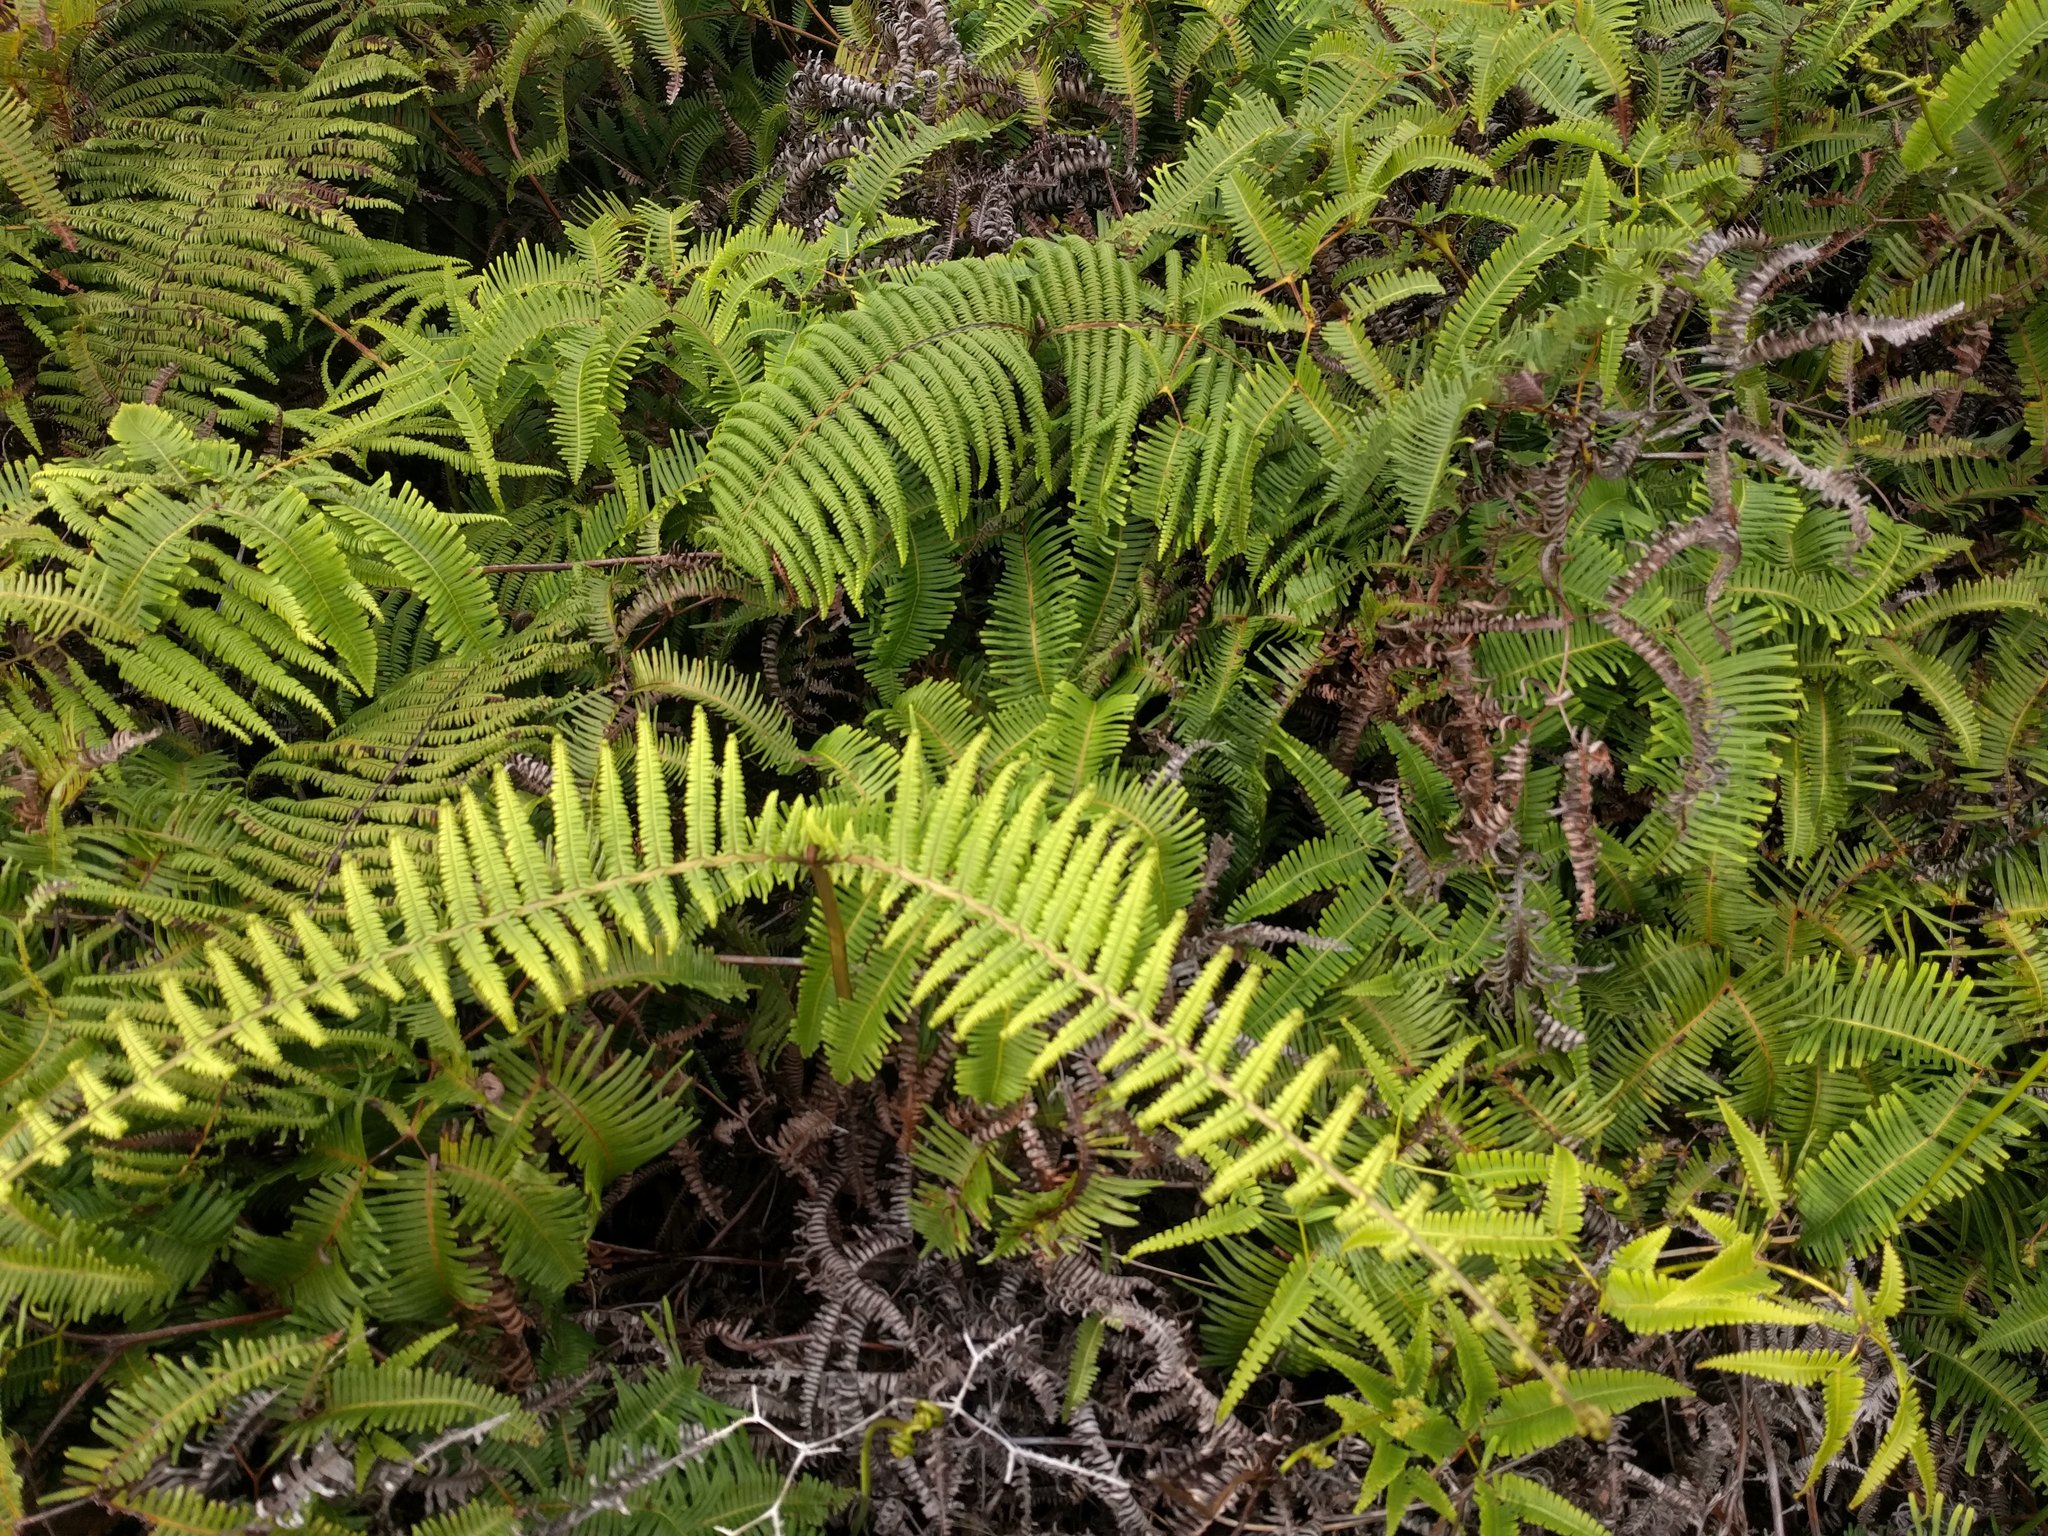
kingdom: Plantae
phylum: Tracheophyta
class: Polypodiopsida
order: Gleicheniales
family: Gleicheniaceae
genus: Diplopterygium
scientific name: Diplopterygium pinnatum
